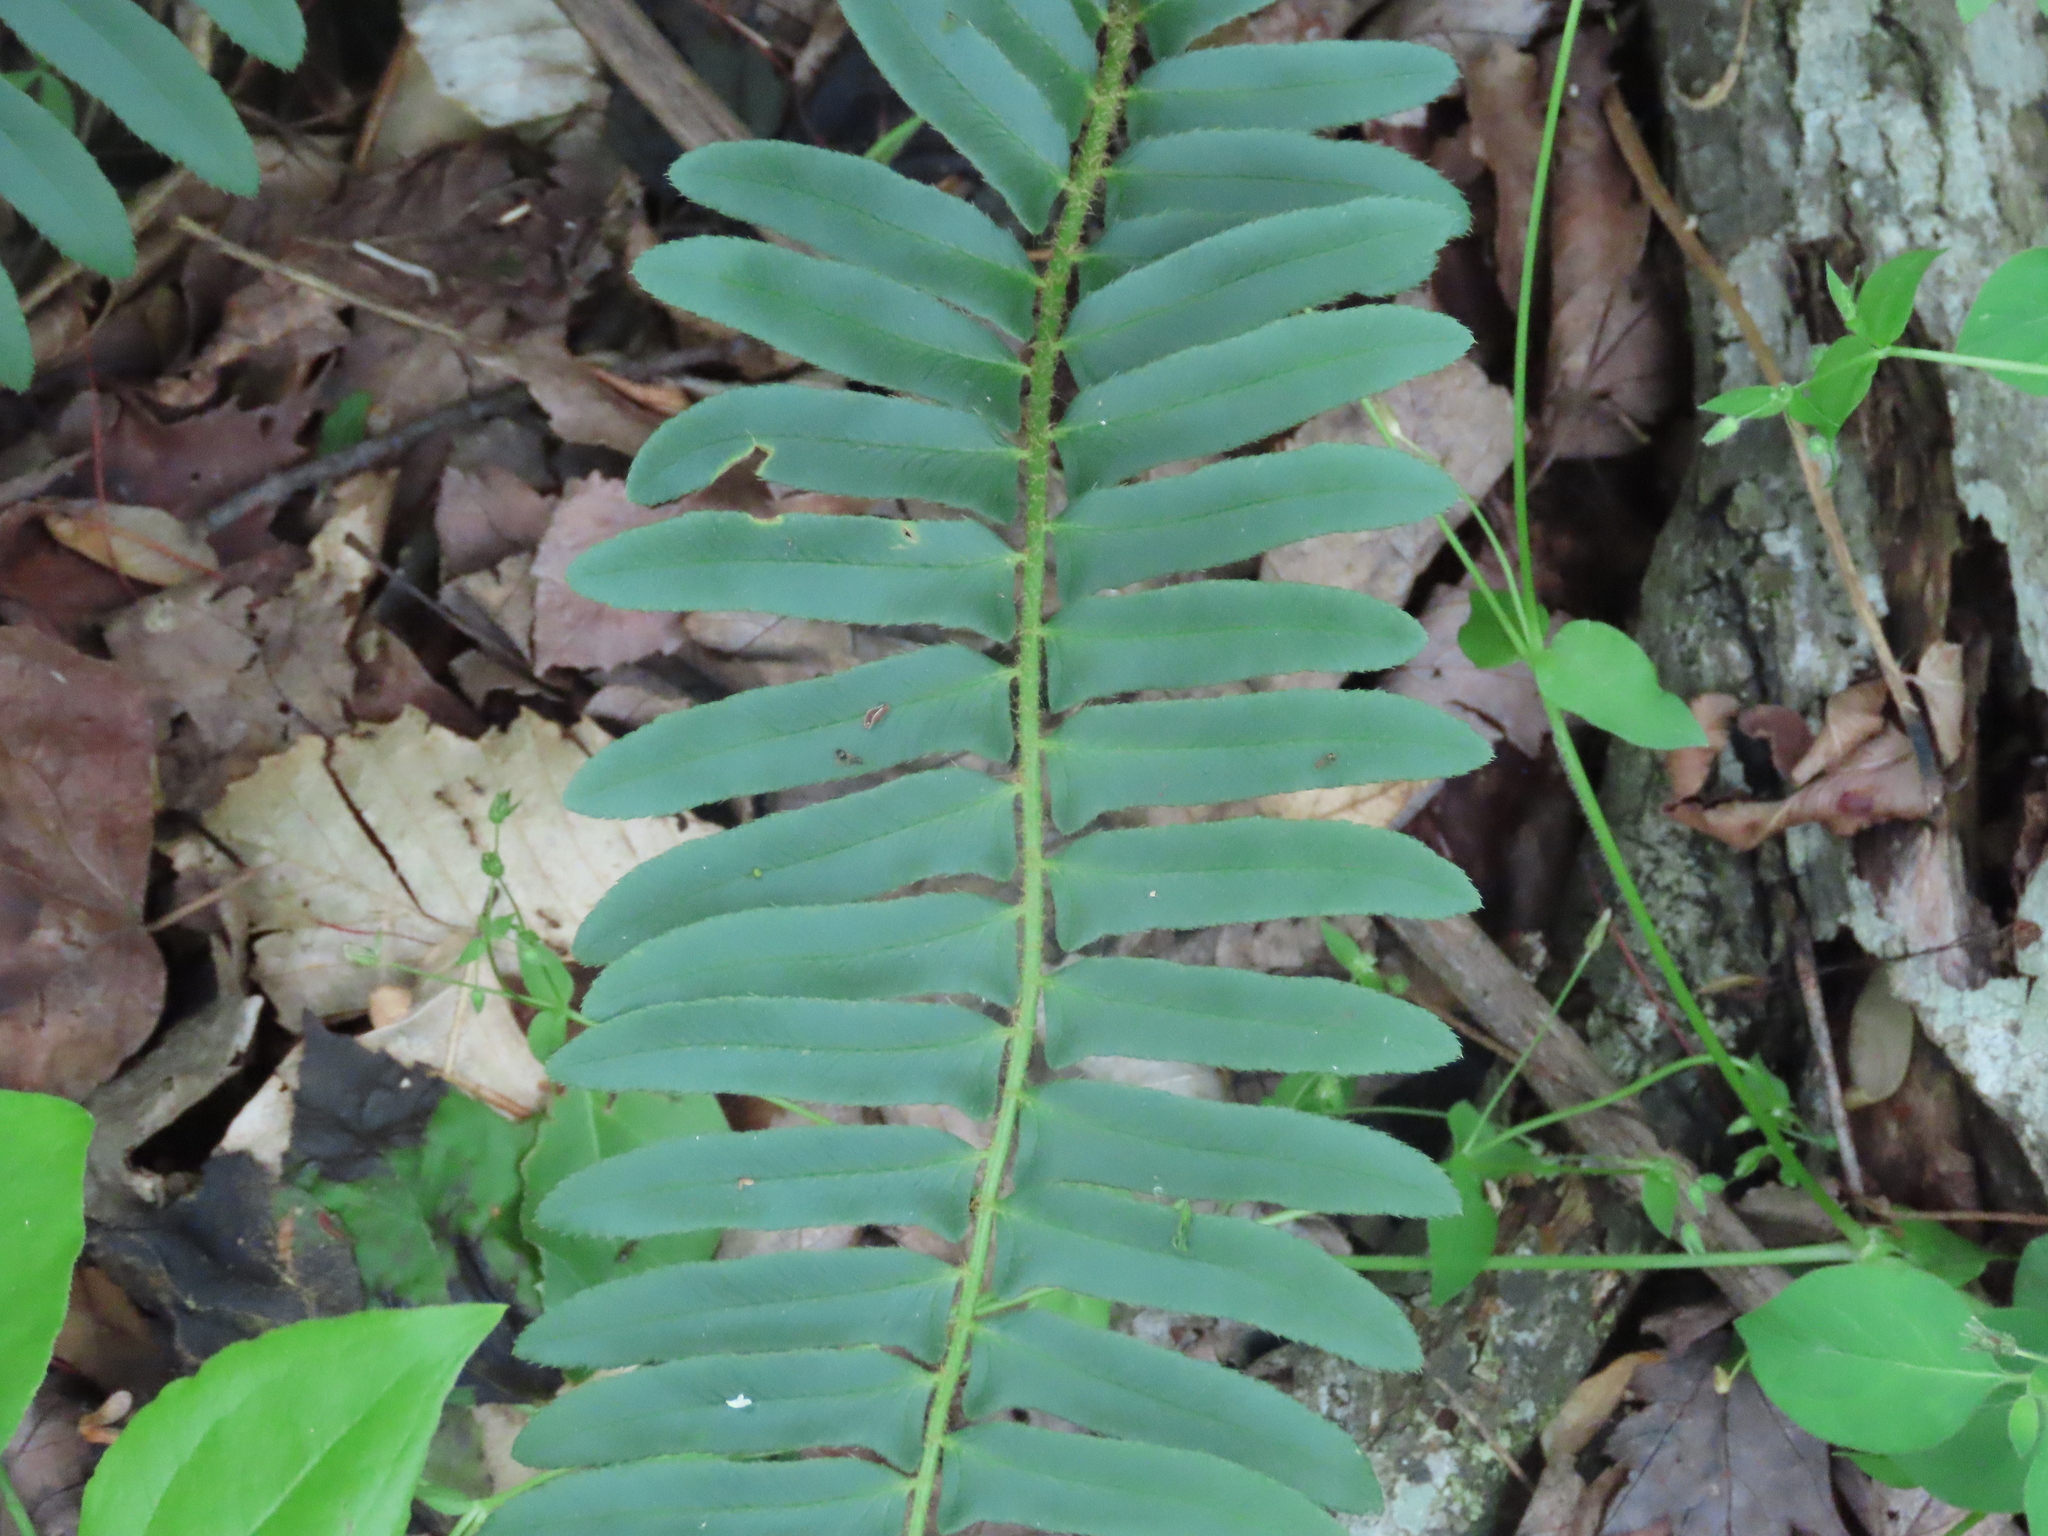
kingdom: Plantae
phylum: Tracheophyta
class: Polypodiopsida
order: Polypodiales
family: Dryopteridaceae
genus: Polystichum
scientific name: Polystichum acrostichoides
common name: Christmas fern
